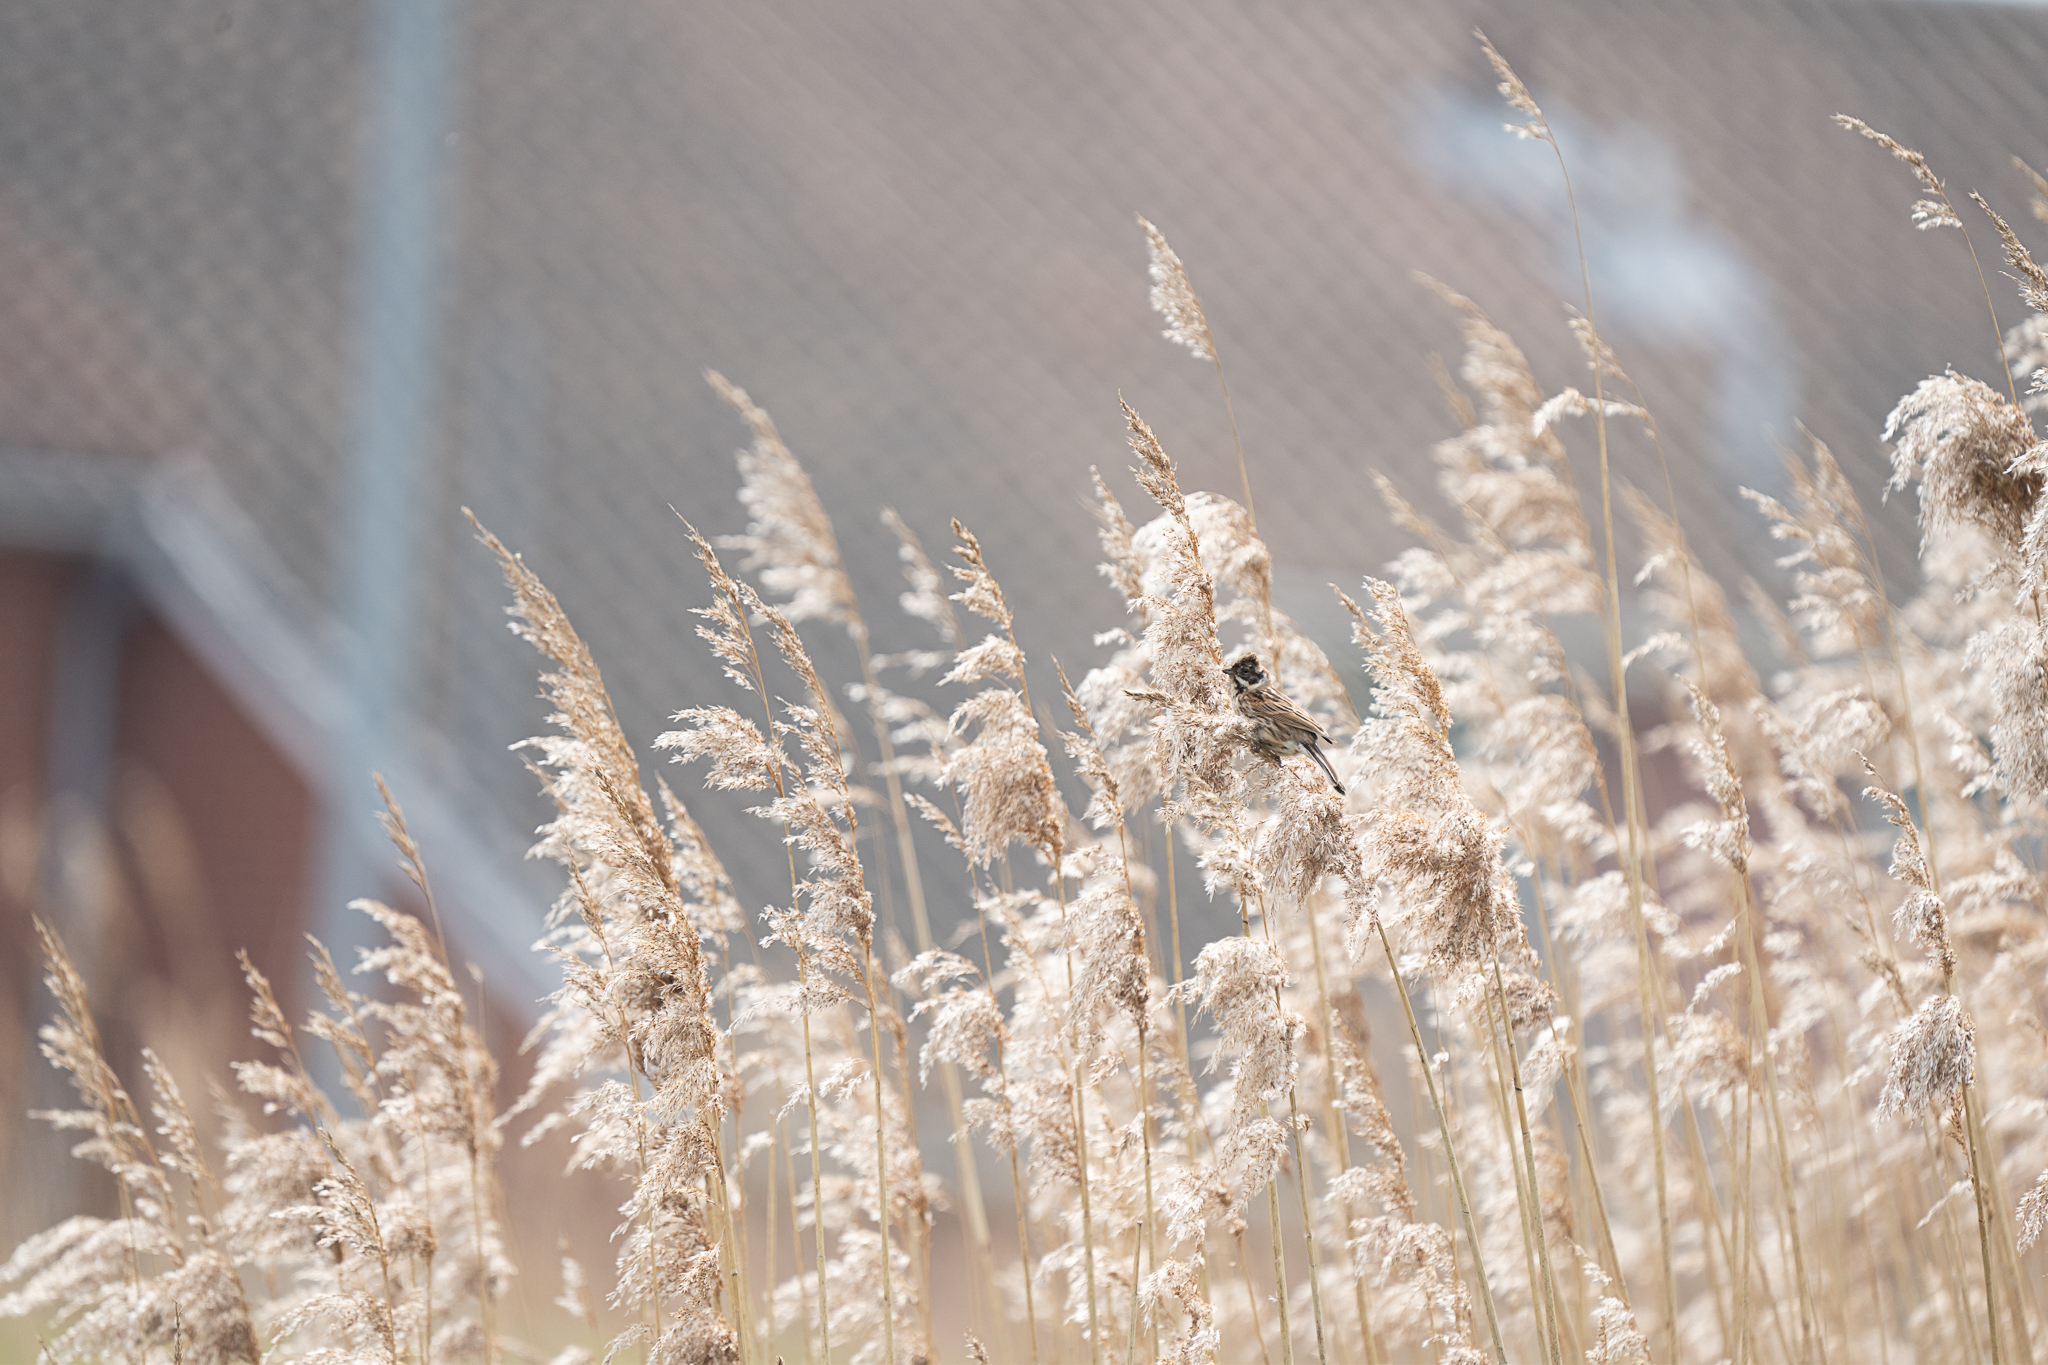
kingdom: Animalia
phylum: Chordata
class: Aves
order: Passeriformes
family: Emberizidae
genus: Emberiza
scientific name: Emberiza schoeniclus
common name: Reed bunting
